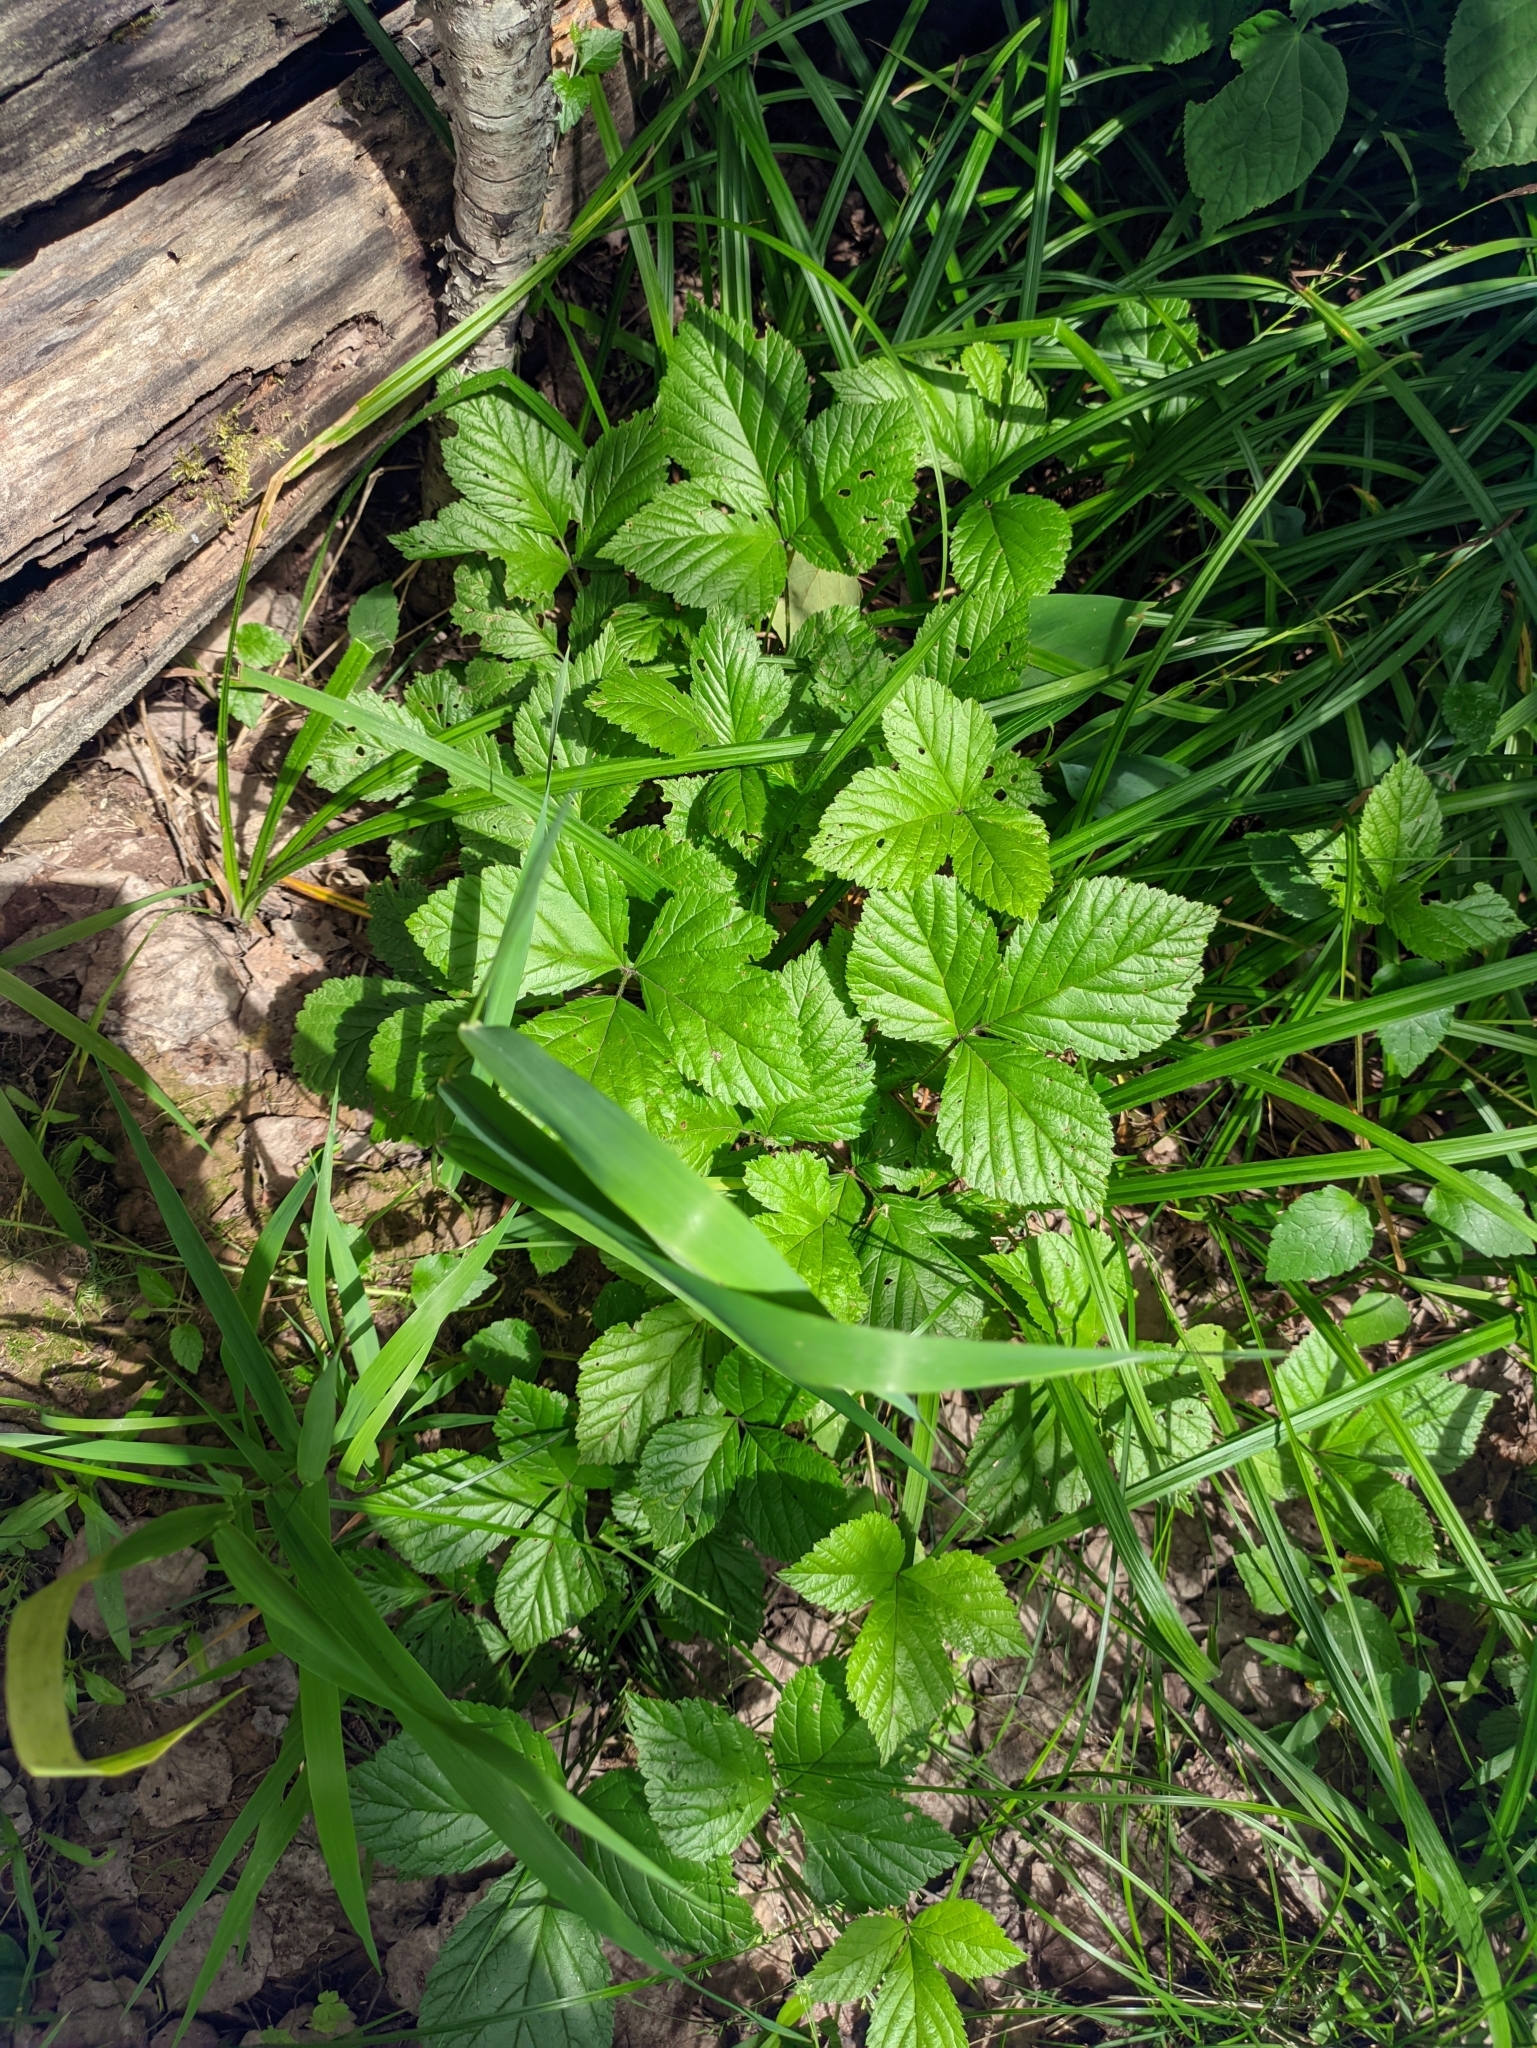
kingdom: Plantae
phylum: Tracheophyta
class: Magnoliopsida
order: Rosales
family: Rosaceae
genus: Rubus
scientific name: Rubus saxatilis
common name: Stone bramble
